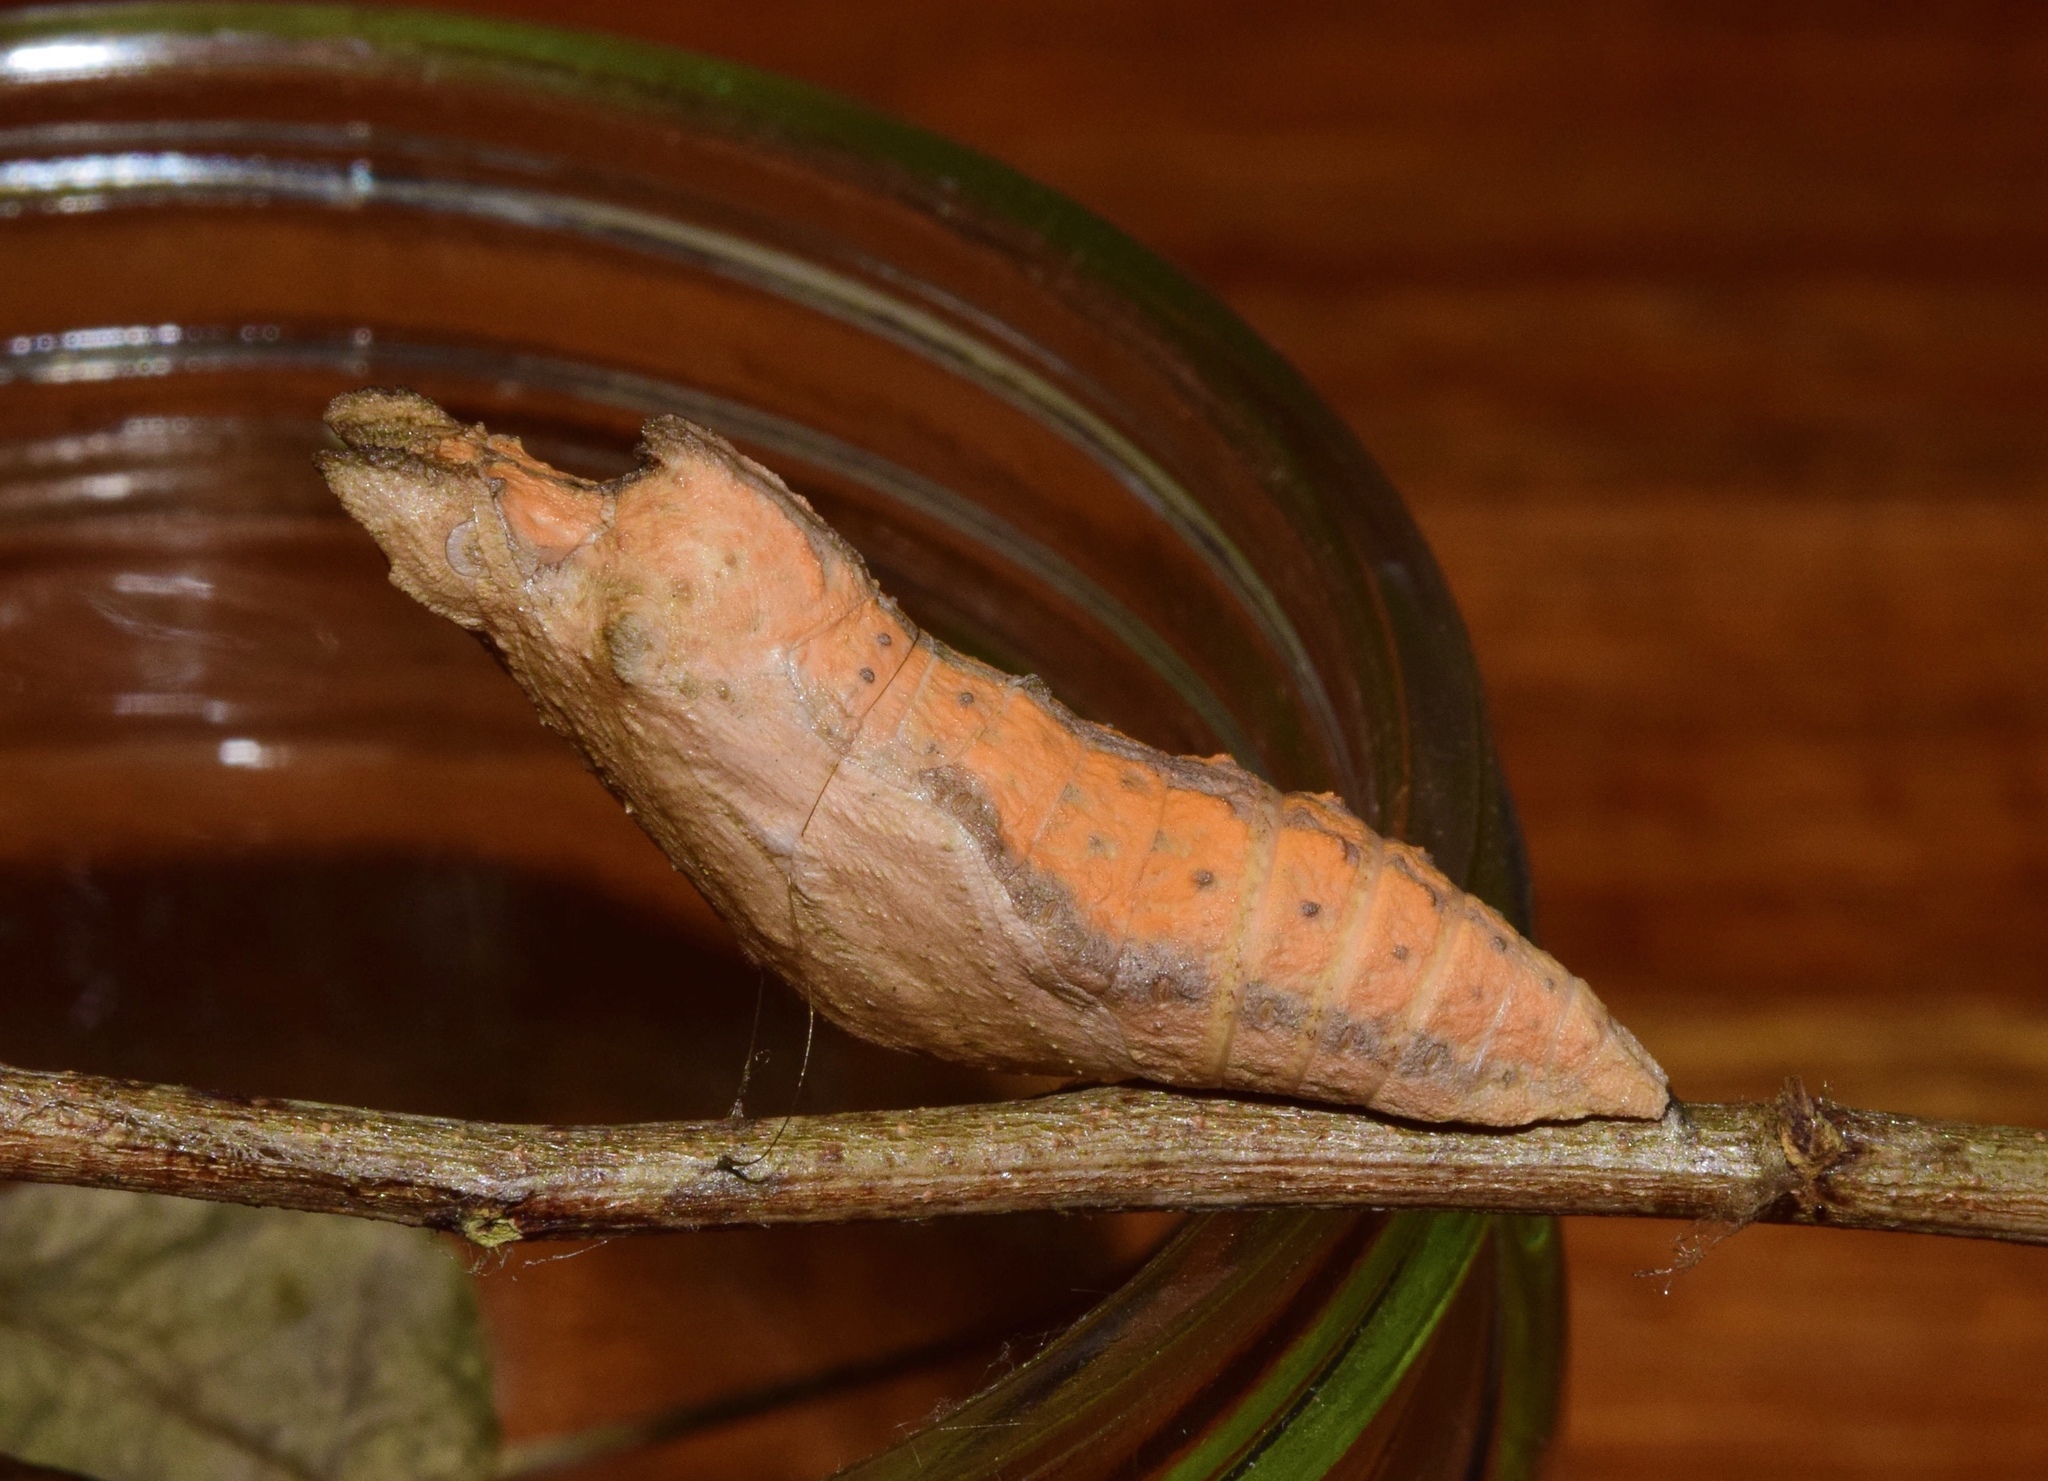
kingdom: Animalia
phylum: Arthropoda
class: Insecta
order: Lepidoptera
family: Papilionidae
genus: Papilio
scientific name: Papilio demodocus
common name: Christmas butterfly
